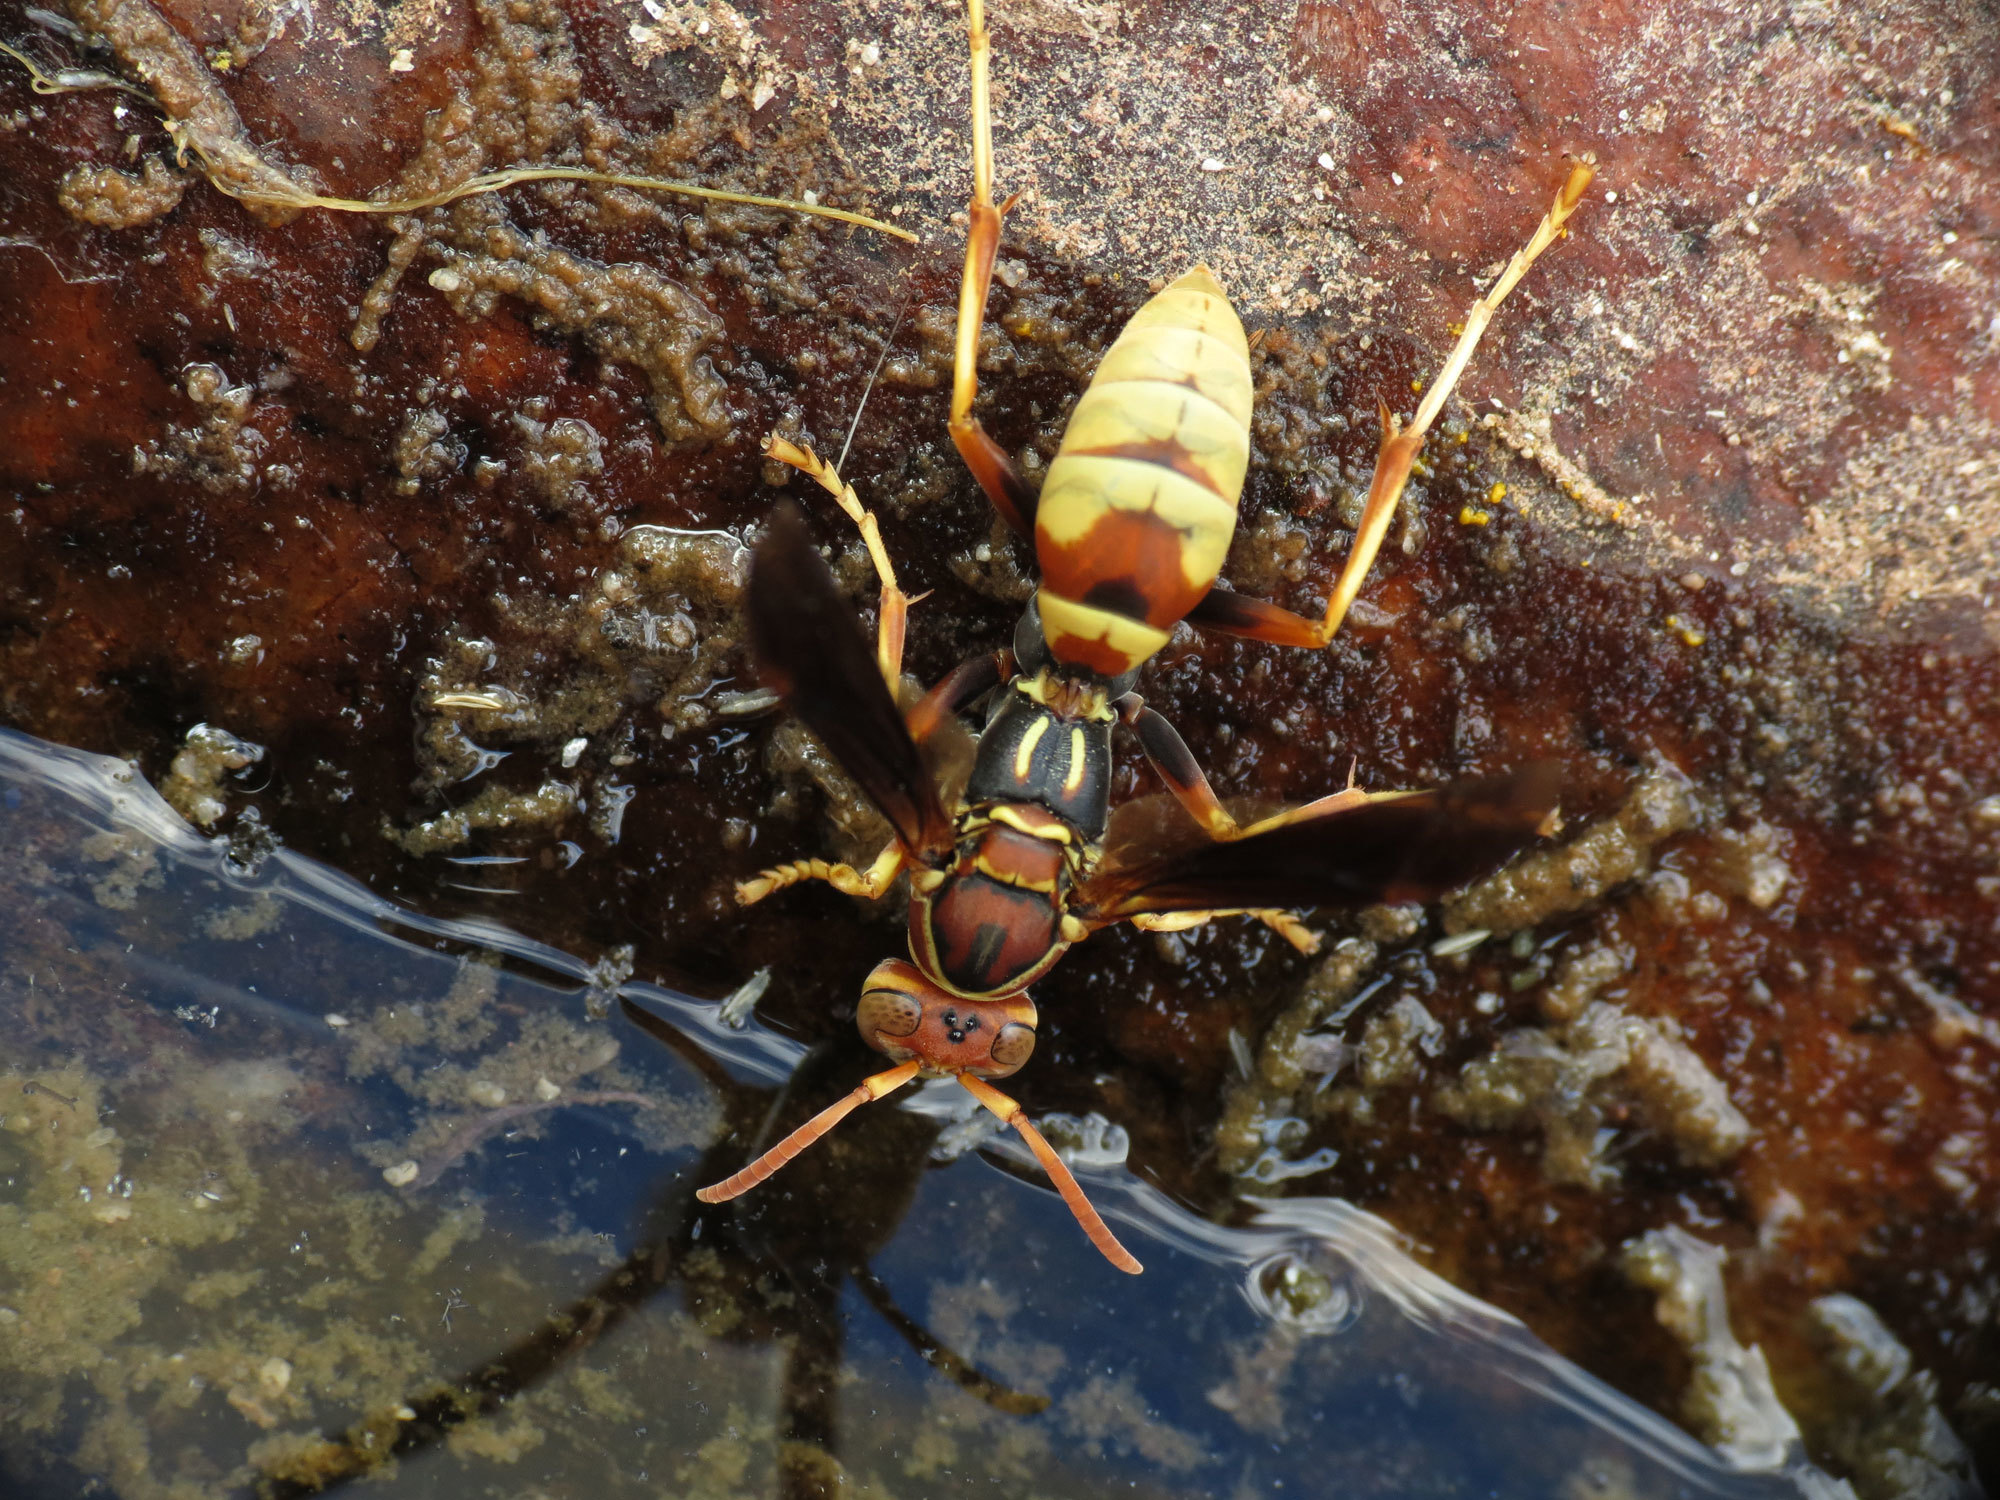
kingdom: Animalia
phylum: Arthropoda
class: Insecta
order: Hymenoptera
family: Eumenidae
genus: Polistes
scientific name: Polistes dorsalis
